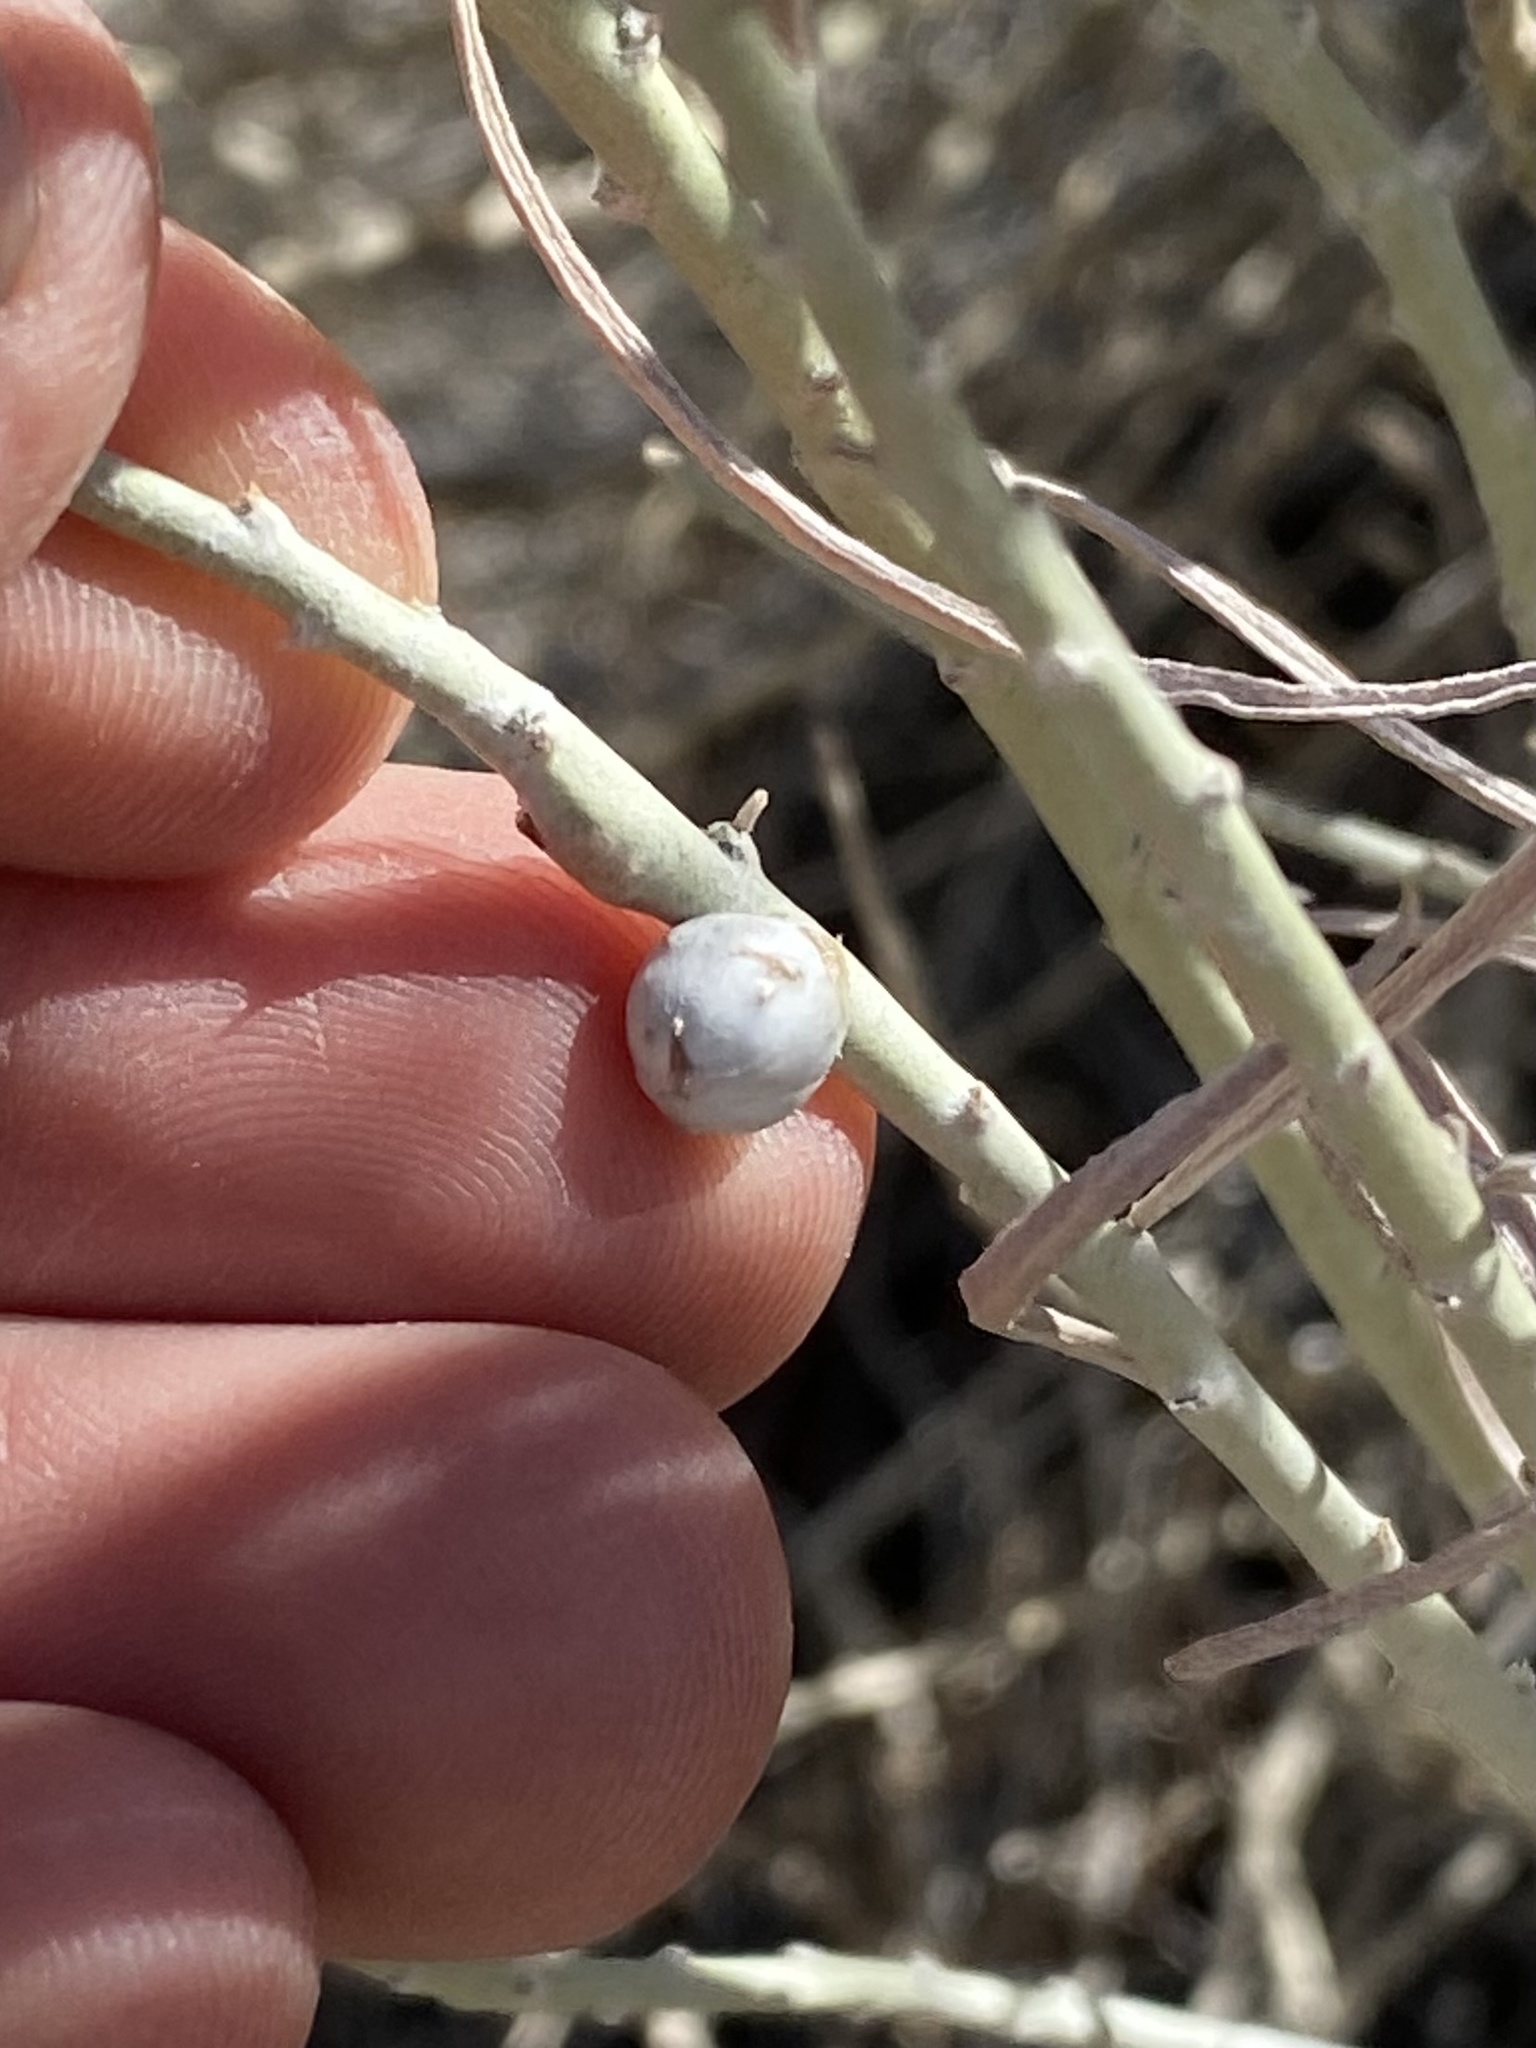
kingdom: Animalia
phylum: Arthropoda
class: Insecta
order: Diptera
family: Tephritidae
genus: Aciurina
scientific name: Aciurina trixa
